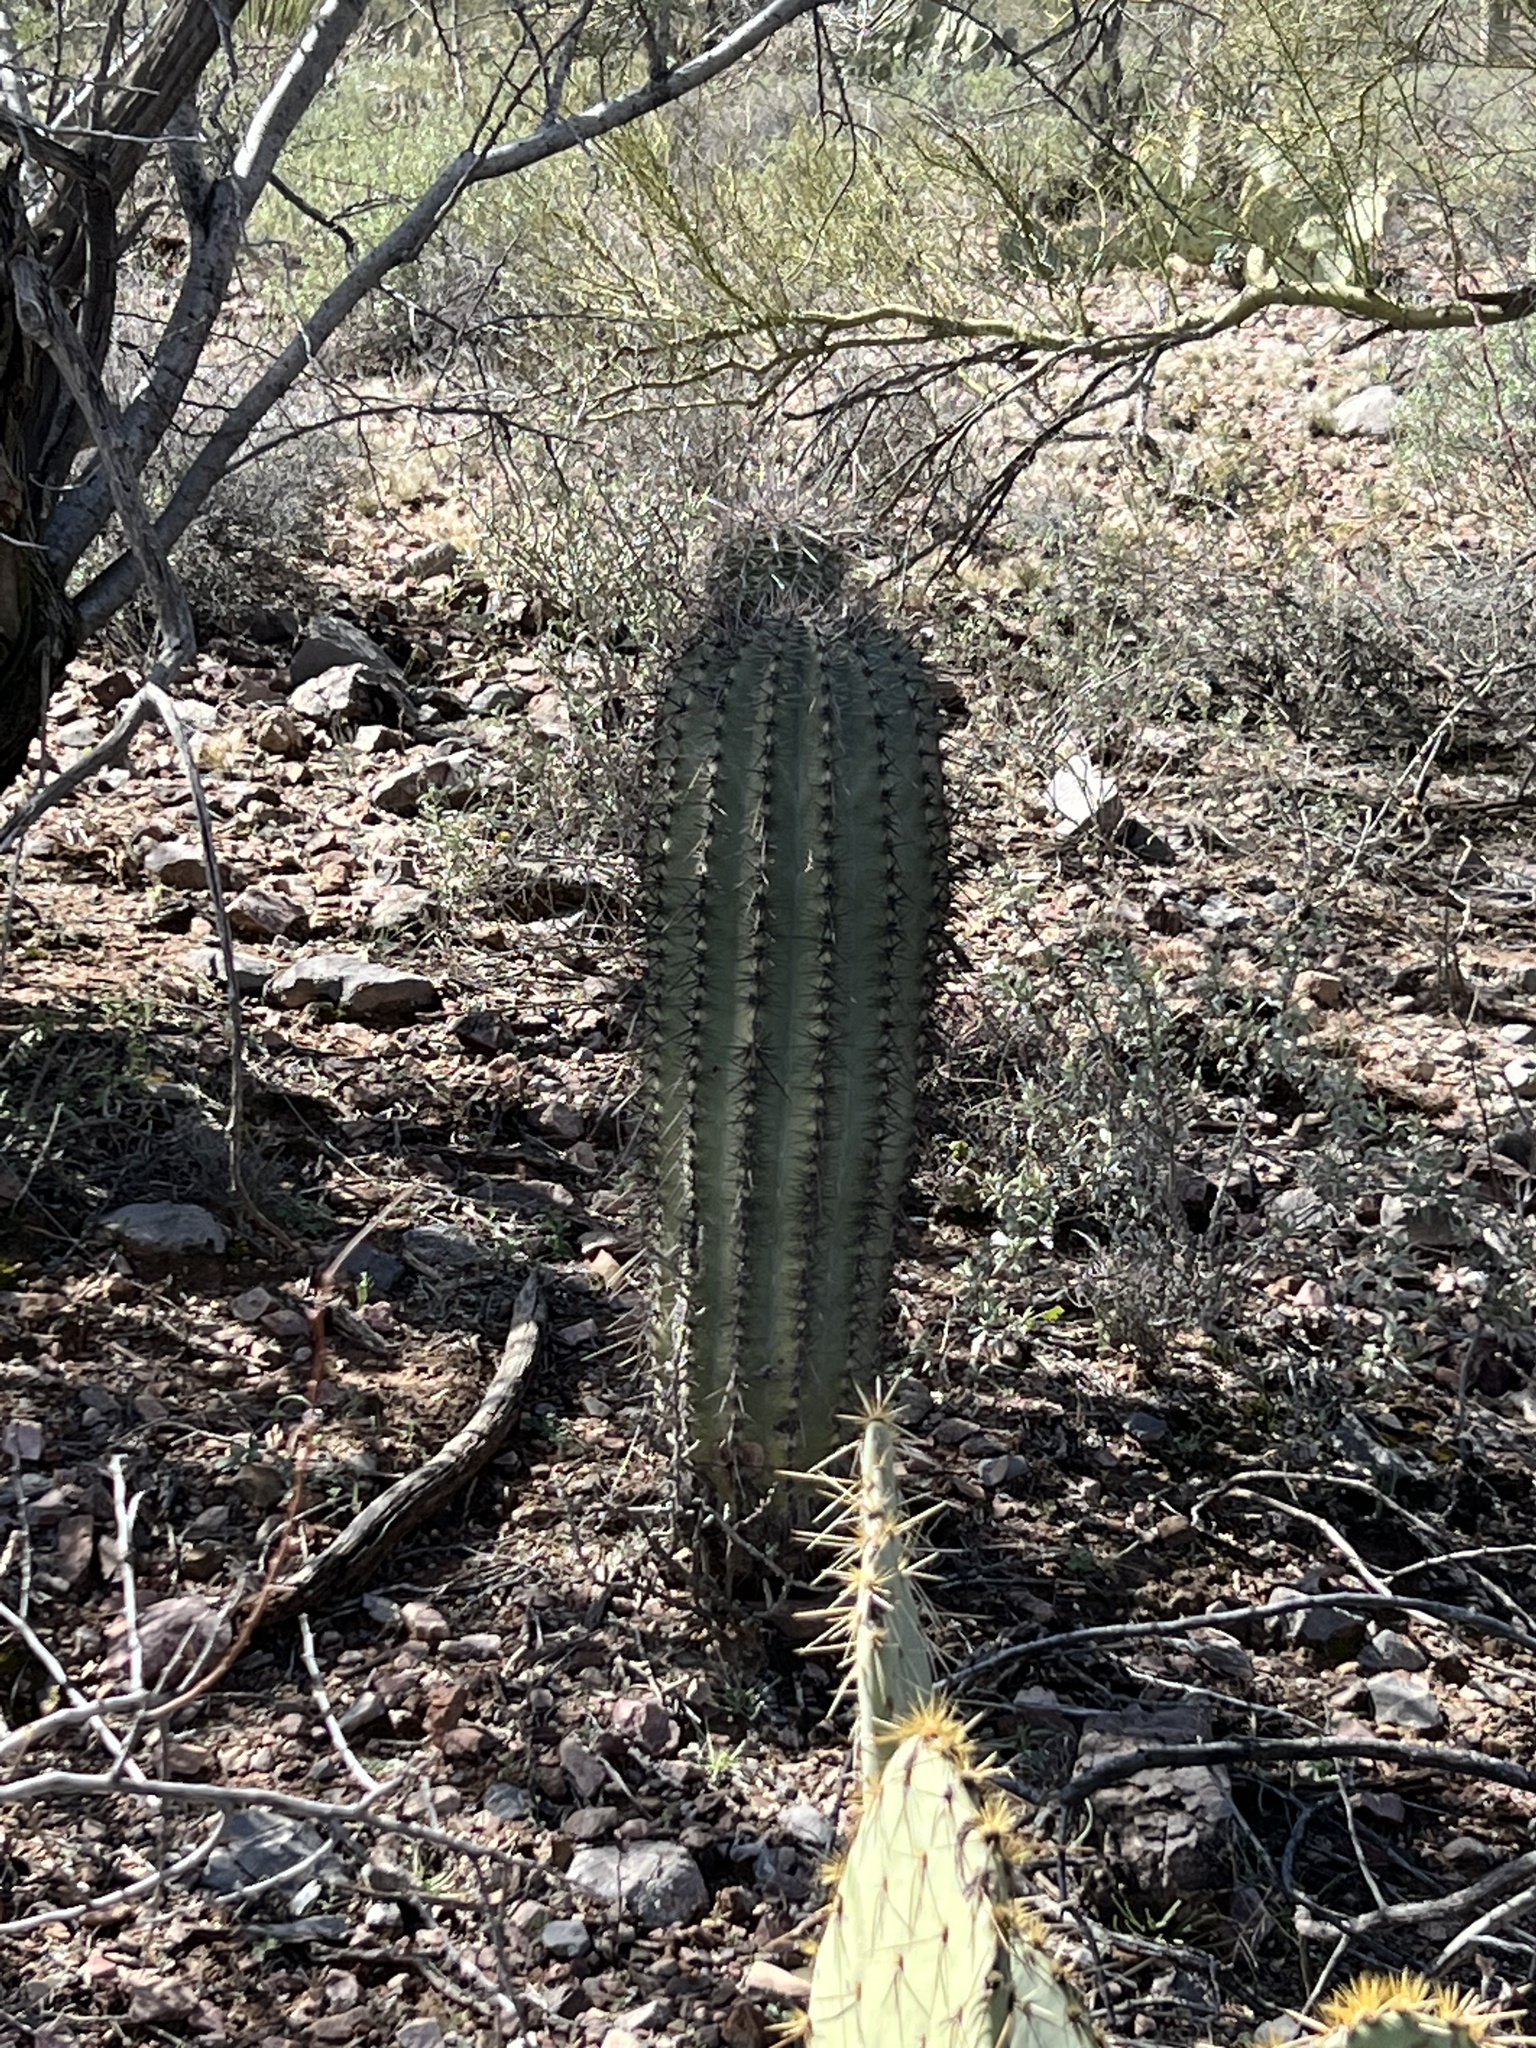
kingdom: Plantae
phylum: Tracheophyta
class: Magnoliopsida
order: Caryophyllales
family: Cactaceae
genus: Carnegiea
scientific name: Carnegiea gigantea
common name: Saguaro
